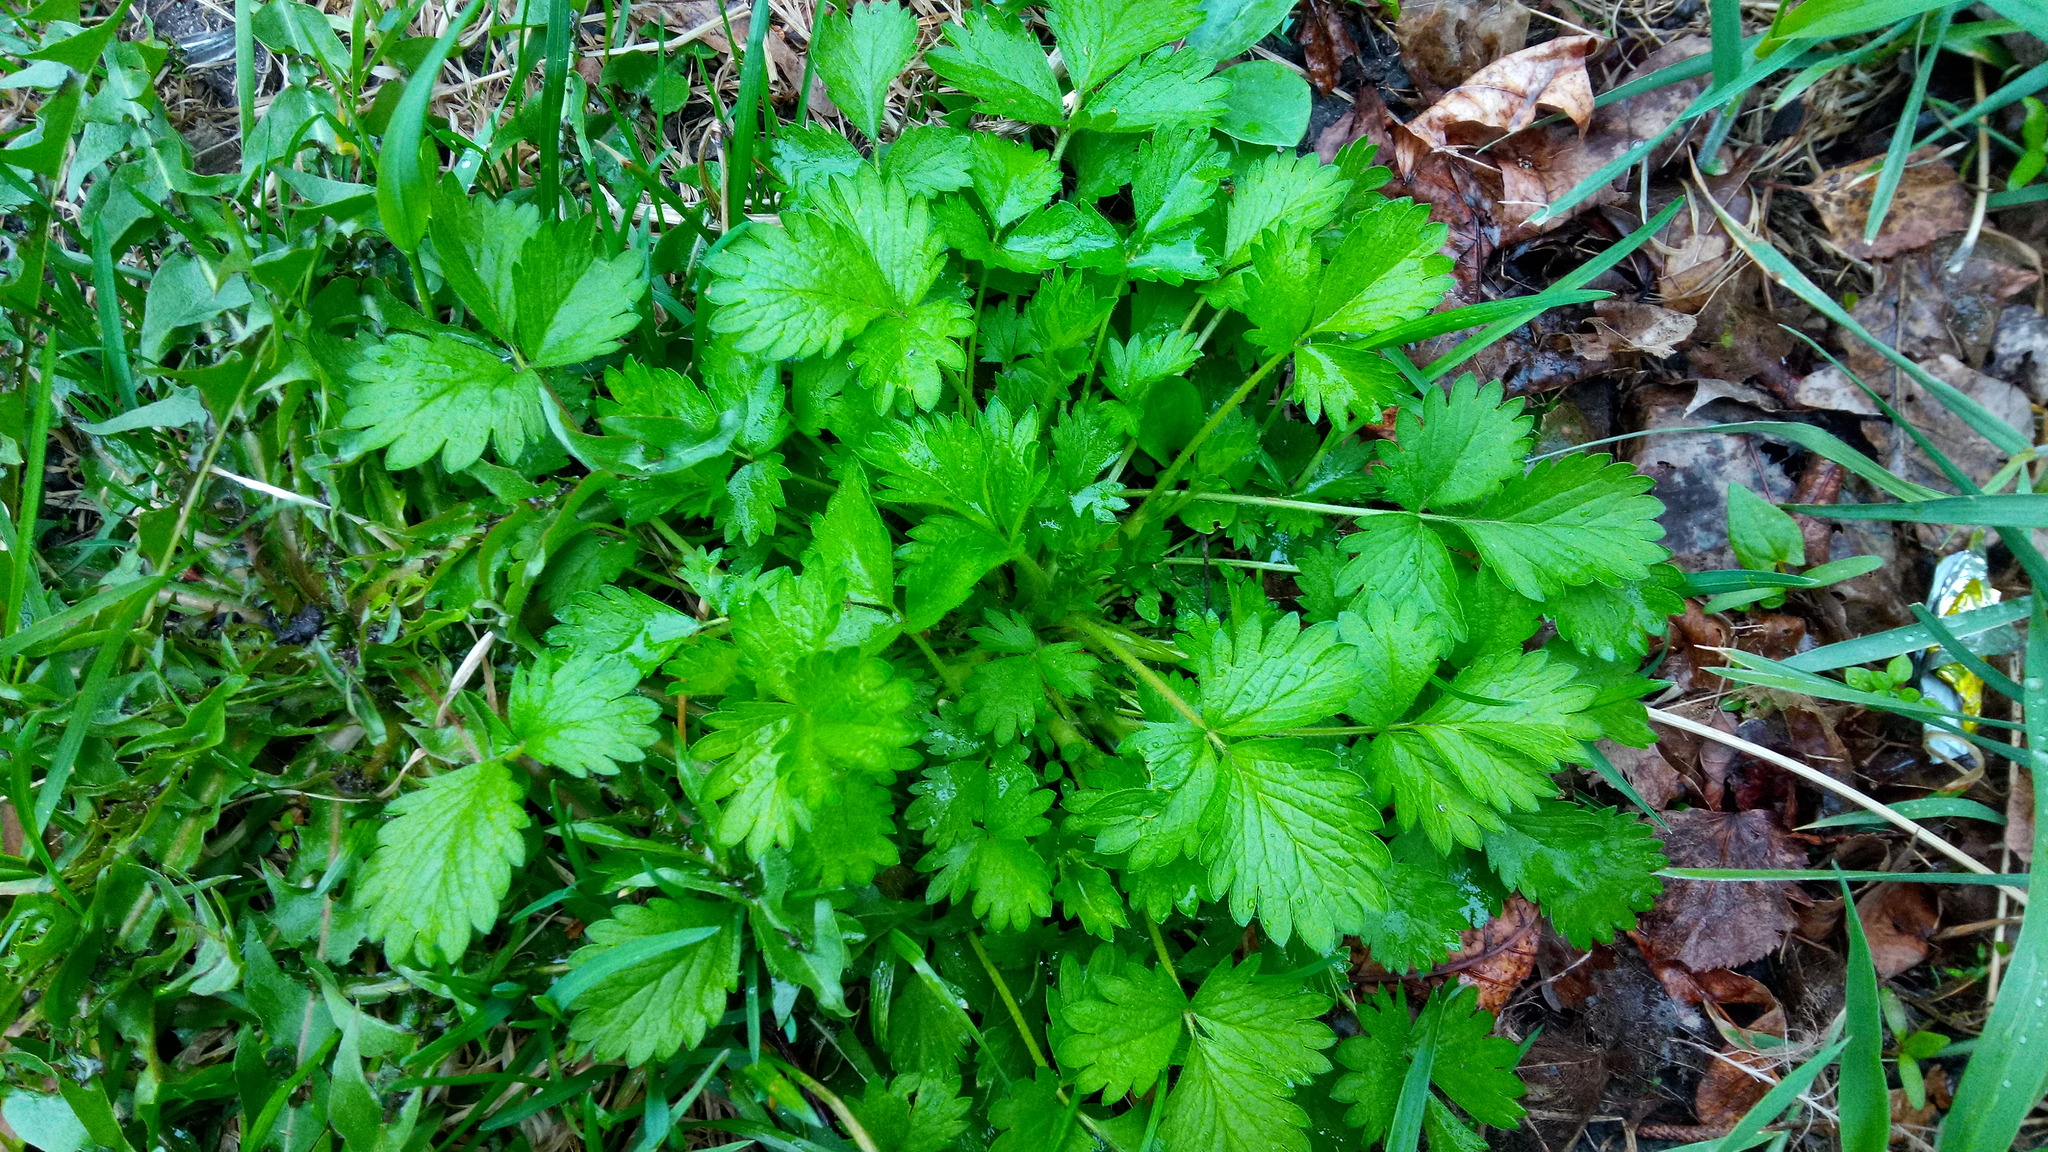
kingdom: Plantae
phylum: Tracheophyta
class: Magnoliopsida
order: Rosales
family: Rosaceae
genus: Potentilla
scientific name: Potentilla norvegica
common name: Ternate-leaved cinquefoil
